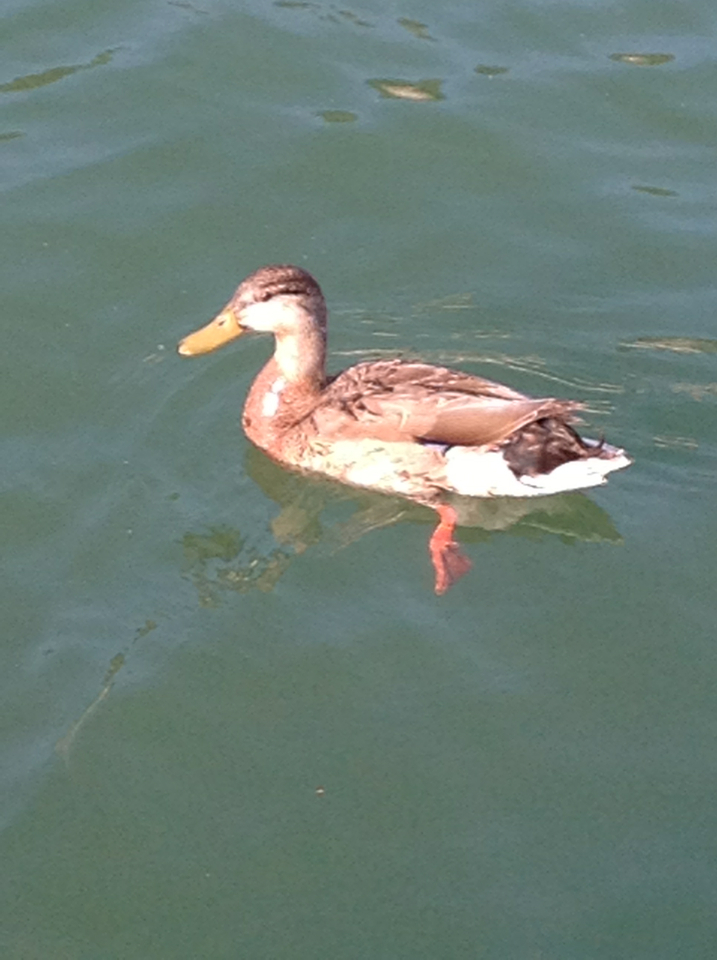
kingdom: Animalia
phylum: Chordata
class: Aves
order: Anseriformes
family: Anatidae
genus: Anas
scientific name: Anas platyrhynchos
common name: Mallard
